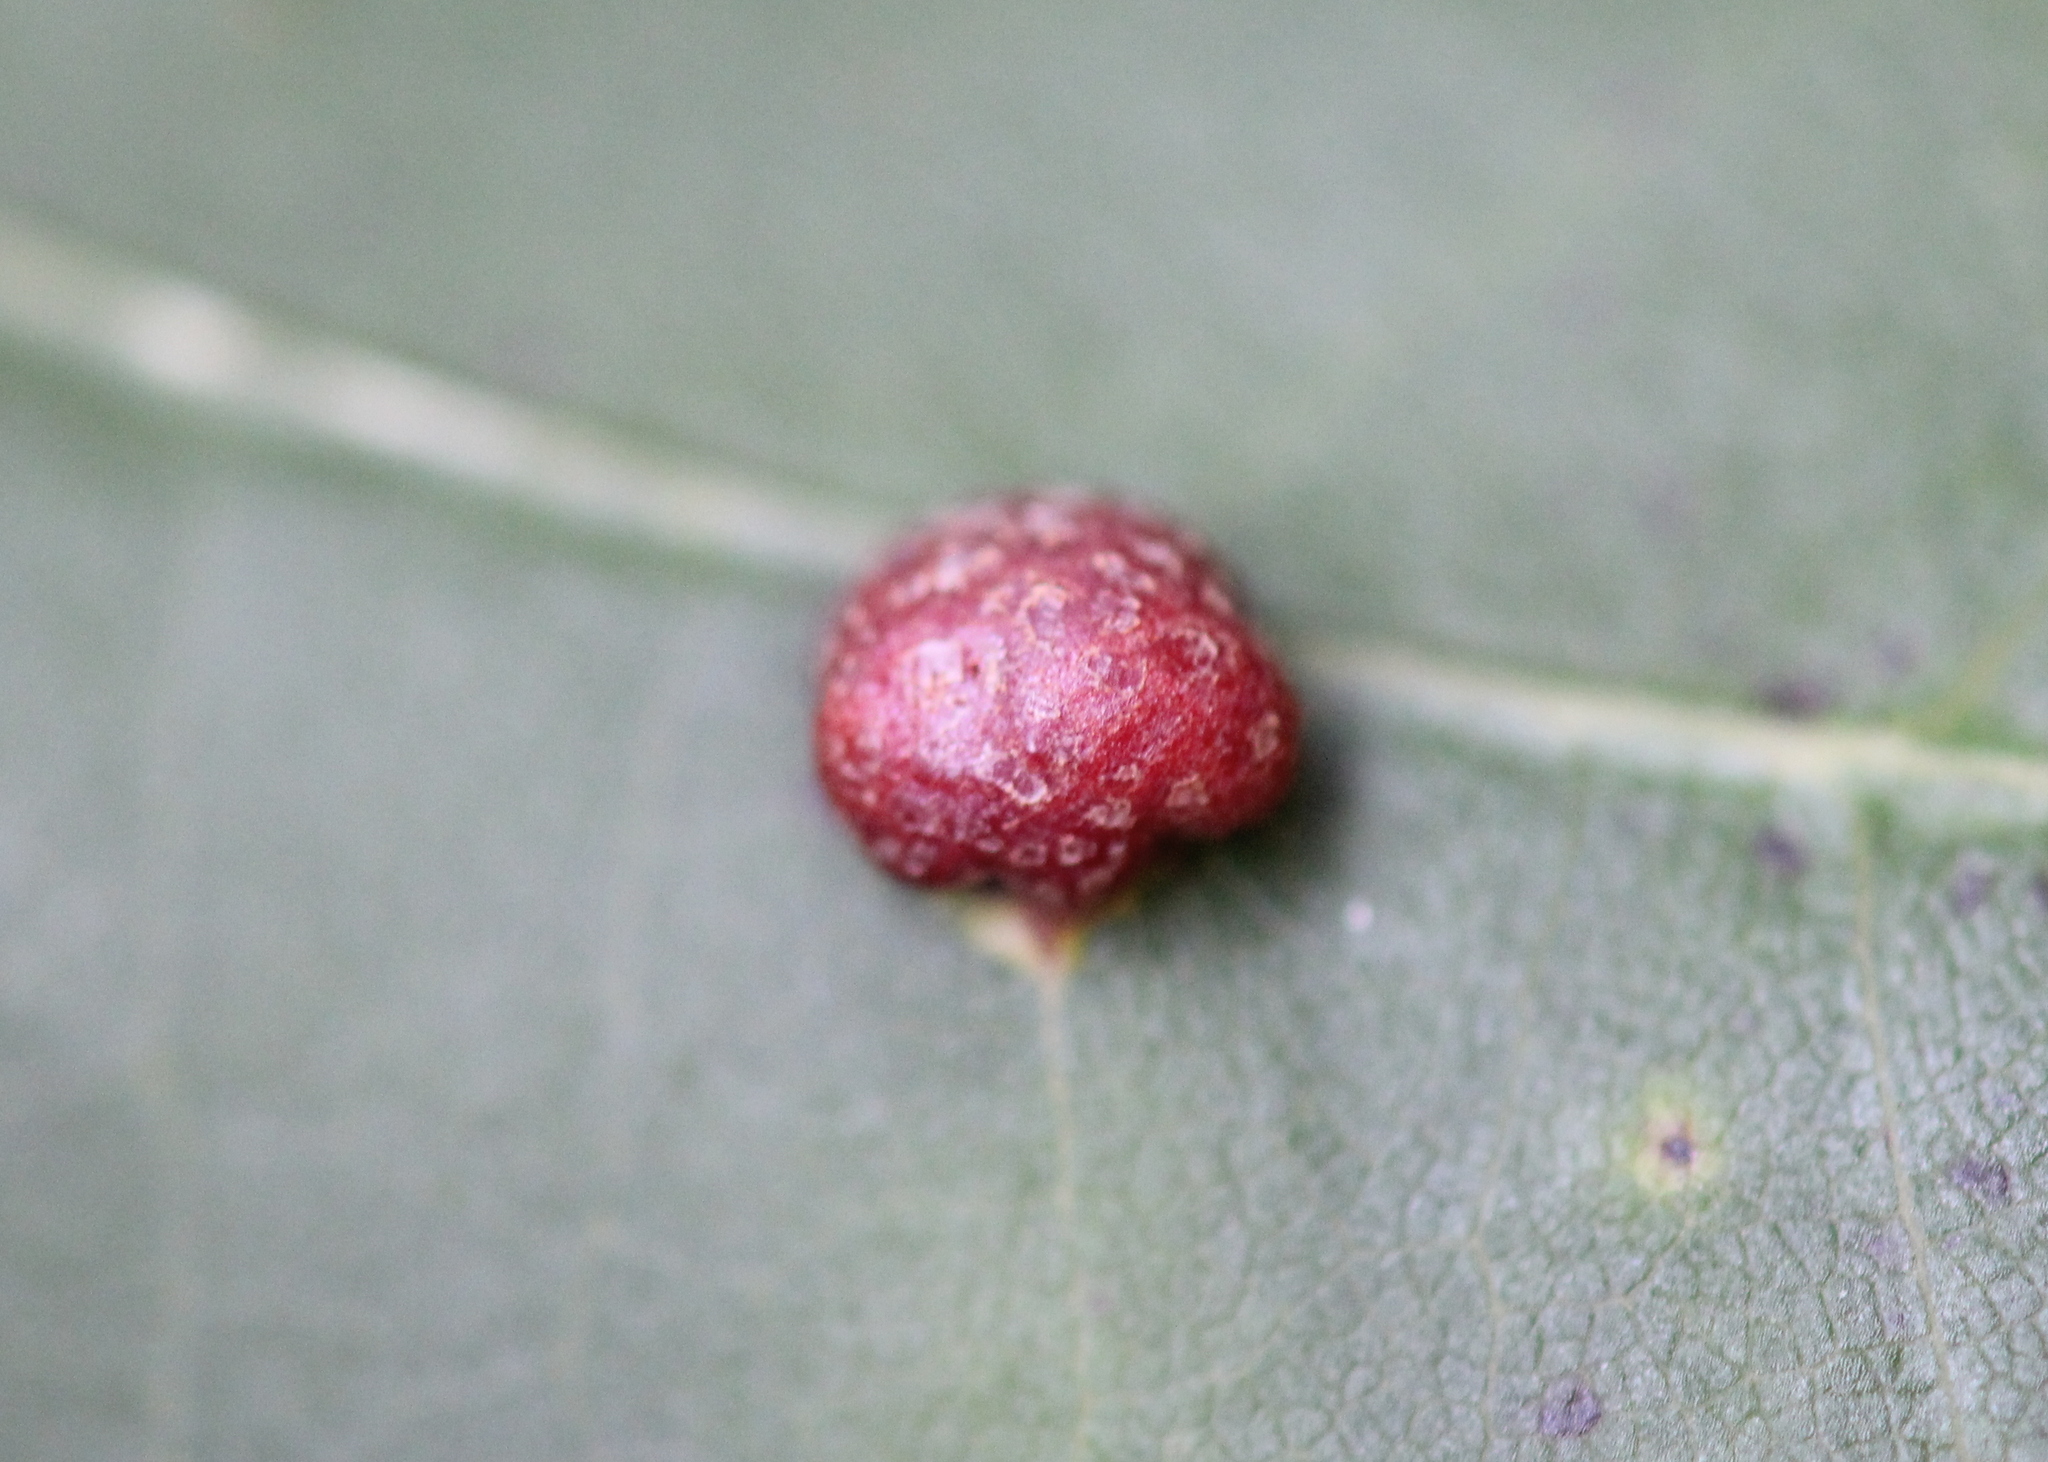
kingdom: Animalia
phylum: Arthropoda
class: Insecta
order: Diptera
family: Cecidomyiidae
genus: Polystepha
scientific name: Polystepha pilulae
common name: Oak leaf gall midge
